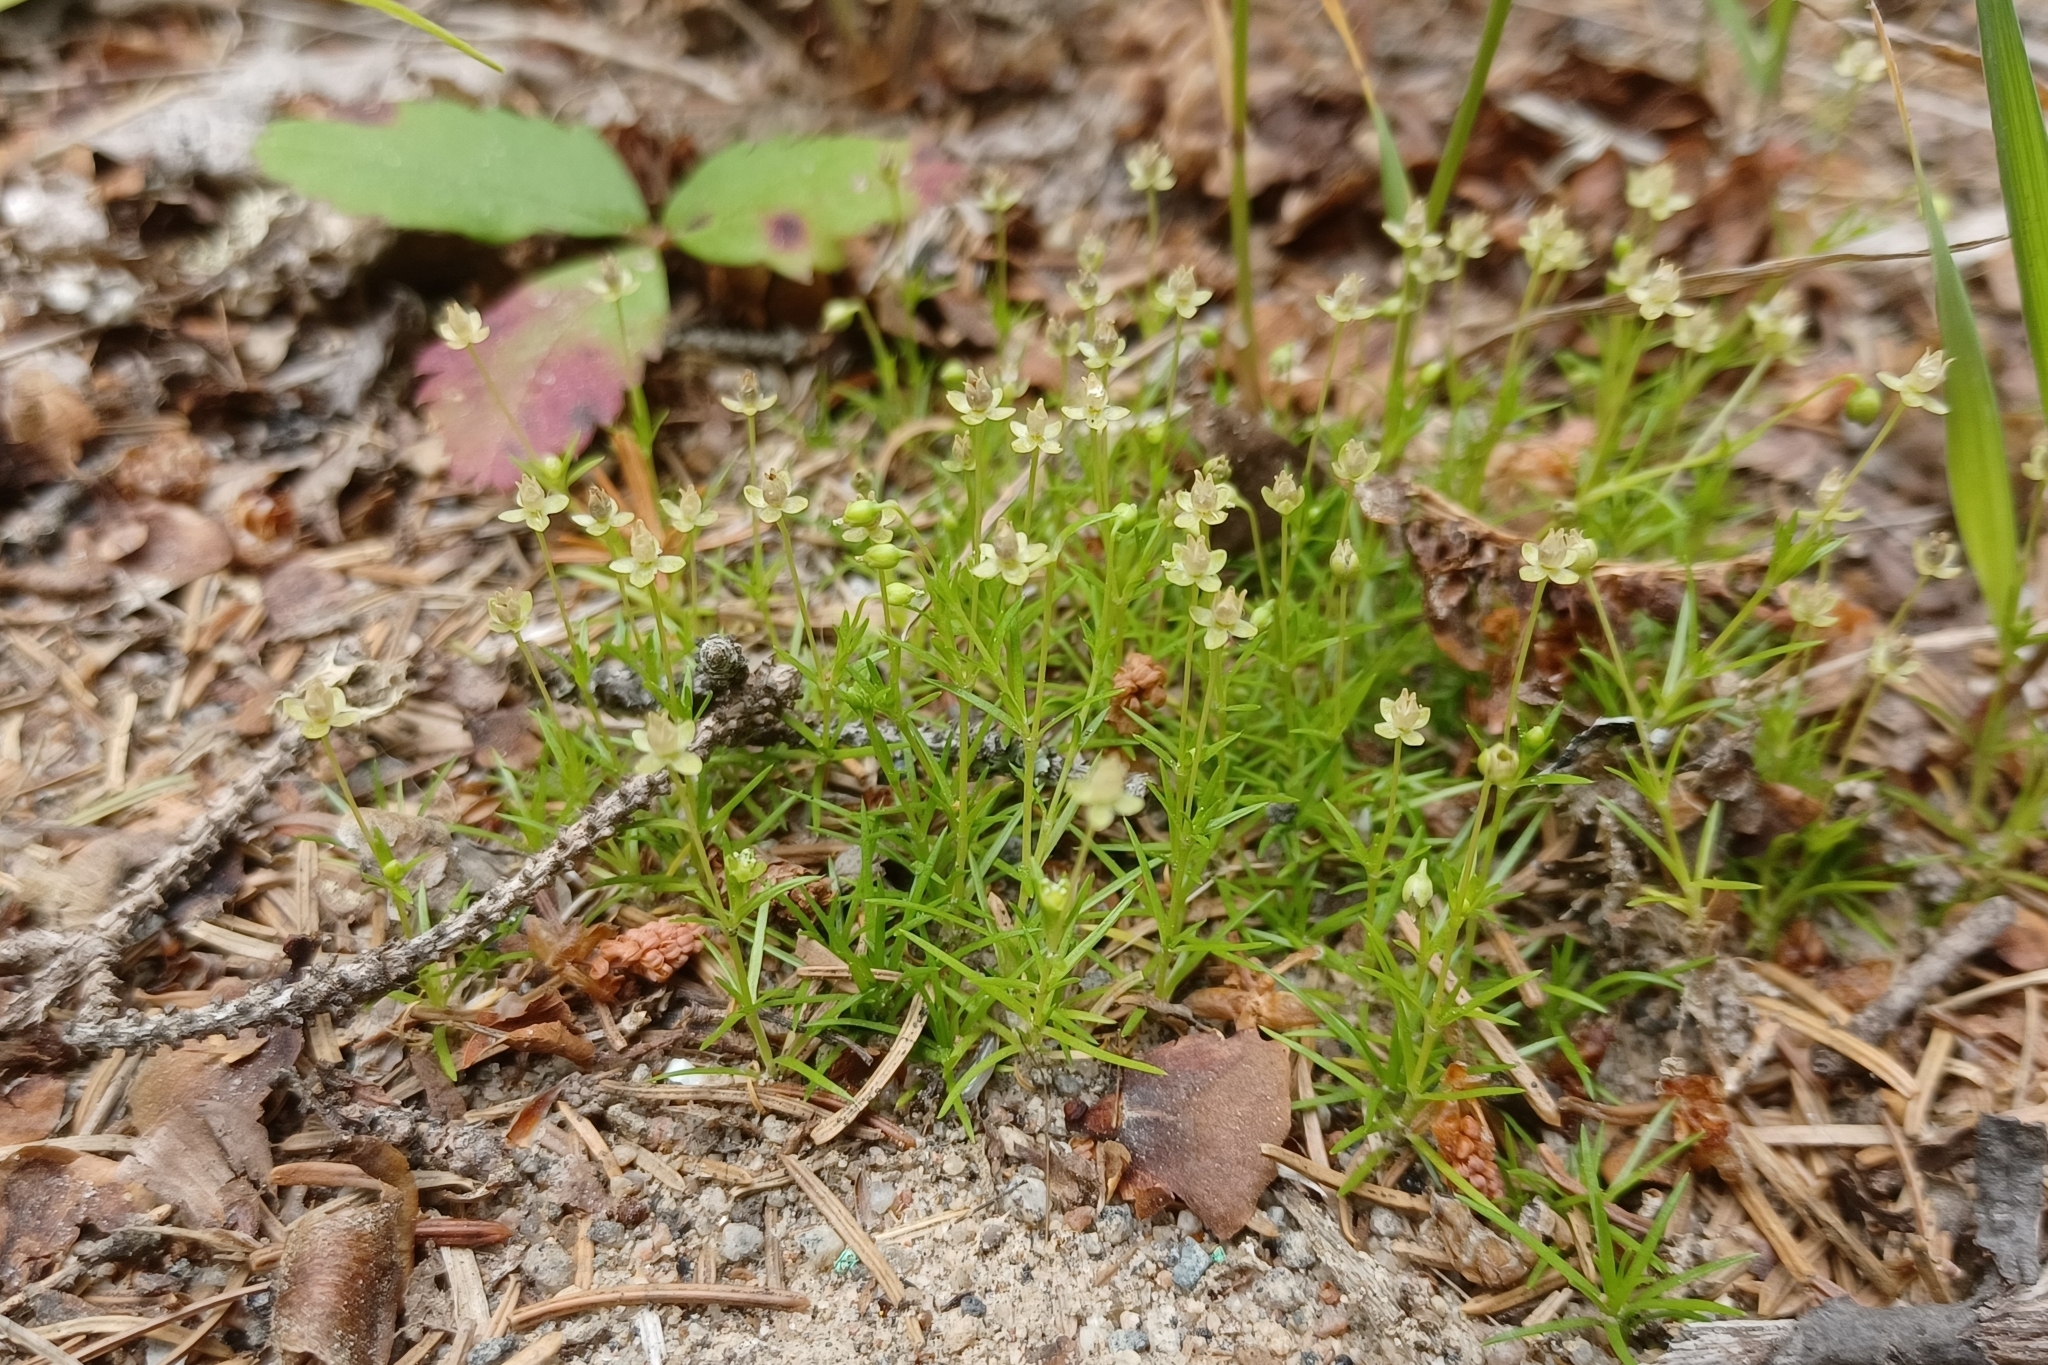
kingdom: Plantae
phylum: Tracheophyta
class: Magnoliopsida
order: Caryophyllales
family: Caryophyllaceae
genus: Sagina
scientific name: Sagina procumbens
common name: Procumbent pearlwort
